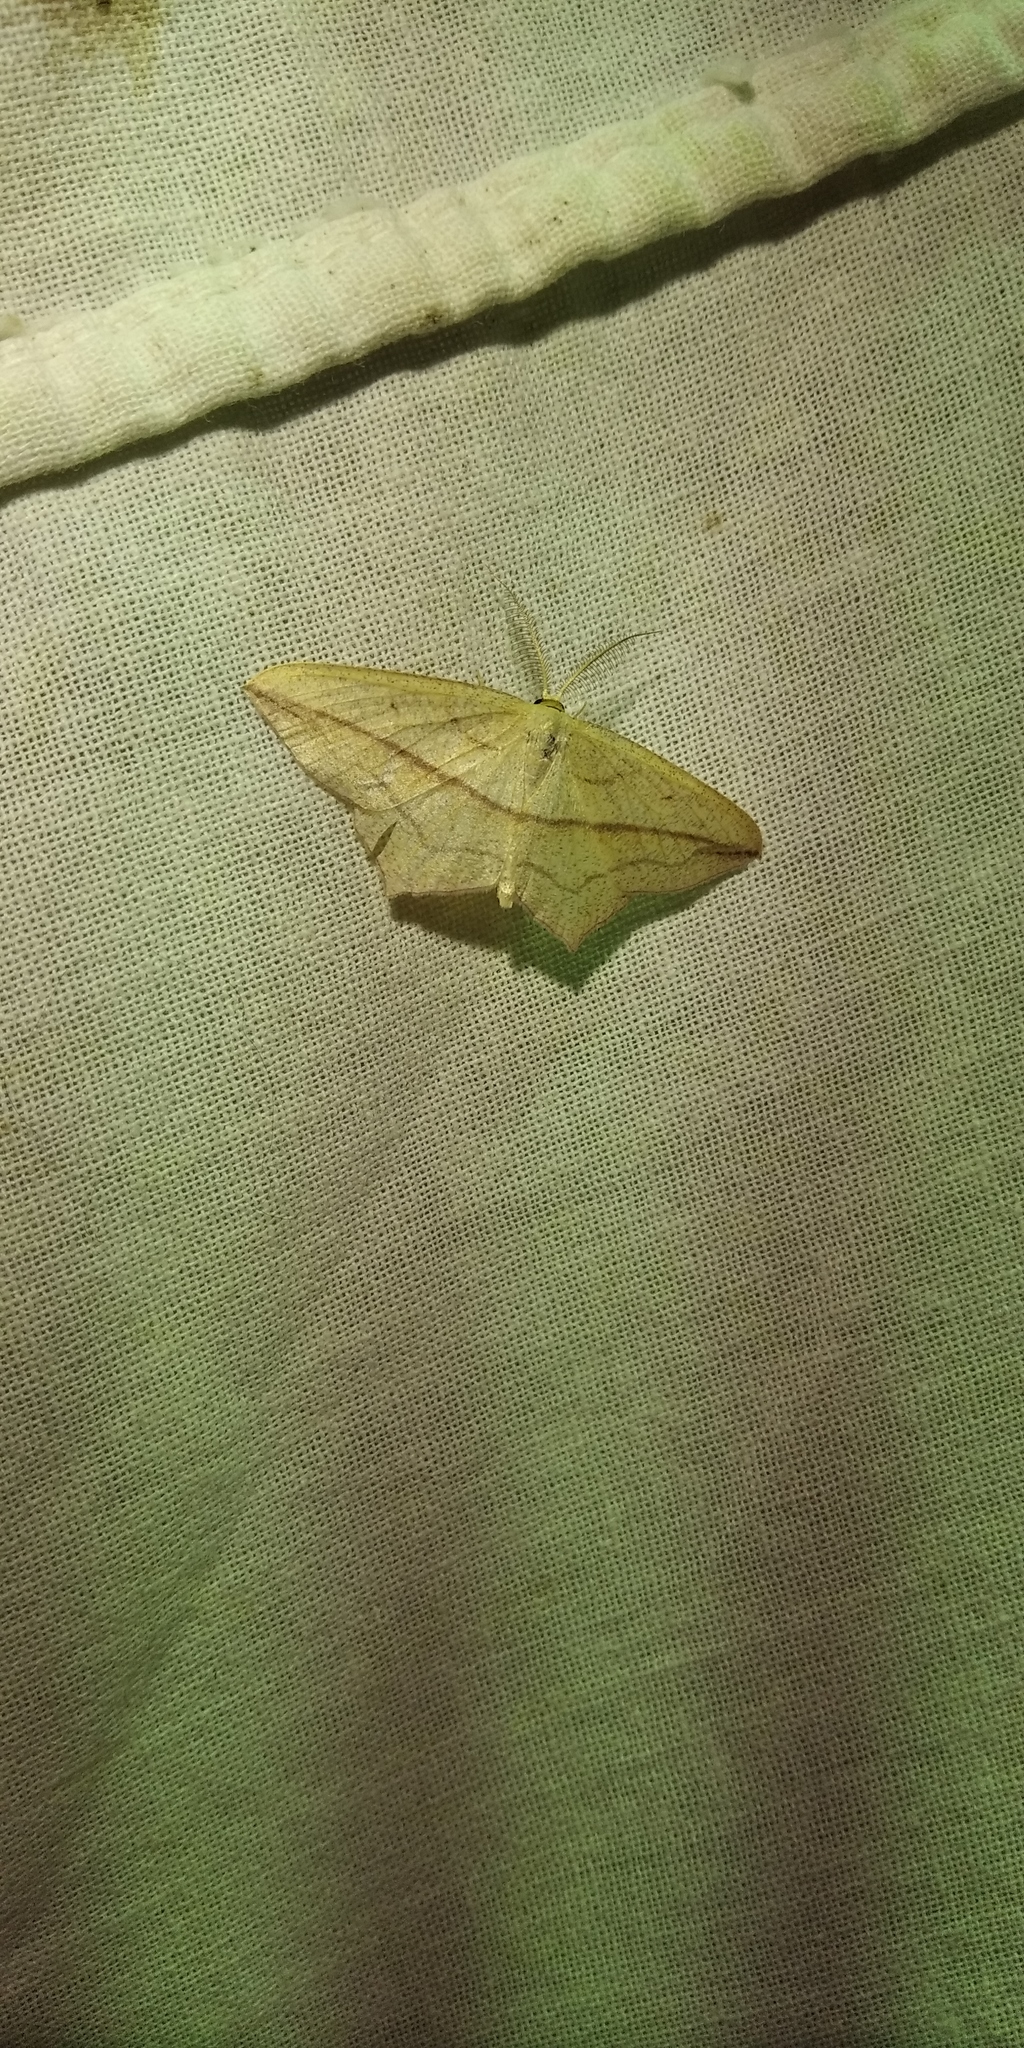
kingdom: Animalia
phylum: Arthropoda
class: Insecta
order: Lepidoptera
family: Geometridae
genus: Timandra
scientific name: Timandra comae
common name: Blood-vein
